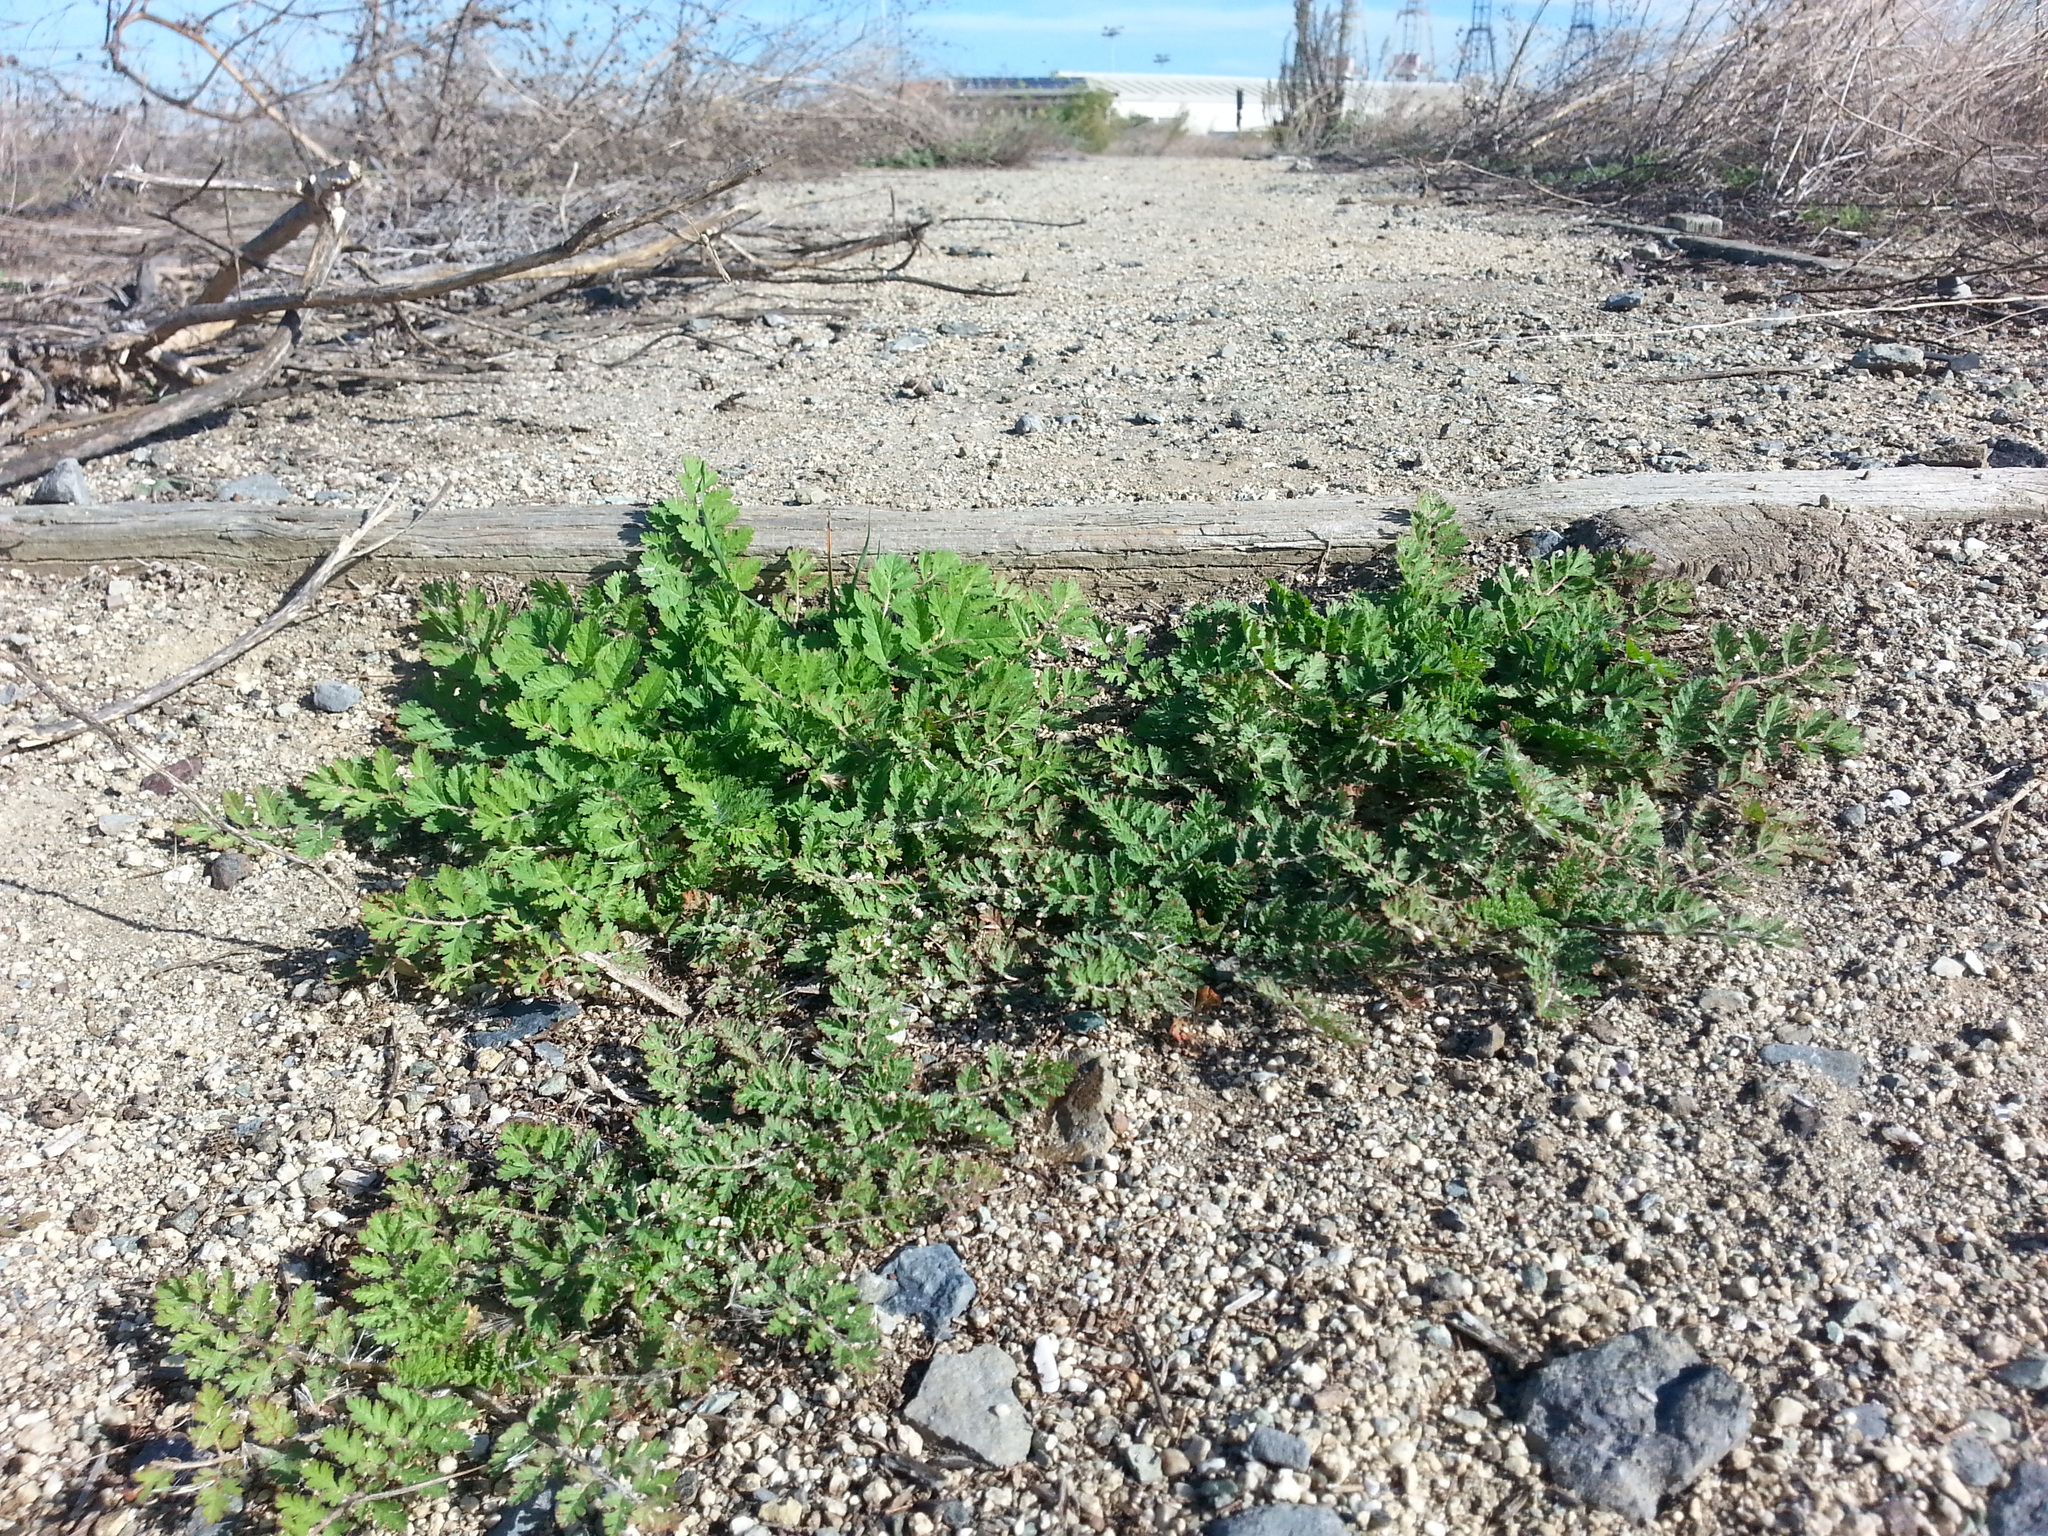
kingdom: Plantae
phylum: Tracheophyta
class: Magnoliopsida
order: Geraniales
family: Geraniaceae
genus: Erodium
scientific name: Erodium cicutarium
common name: Common stork's-bill
